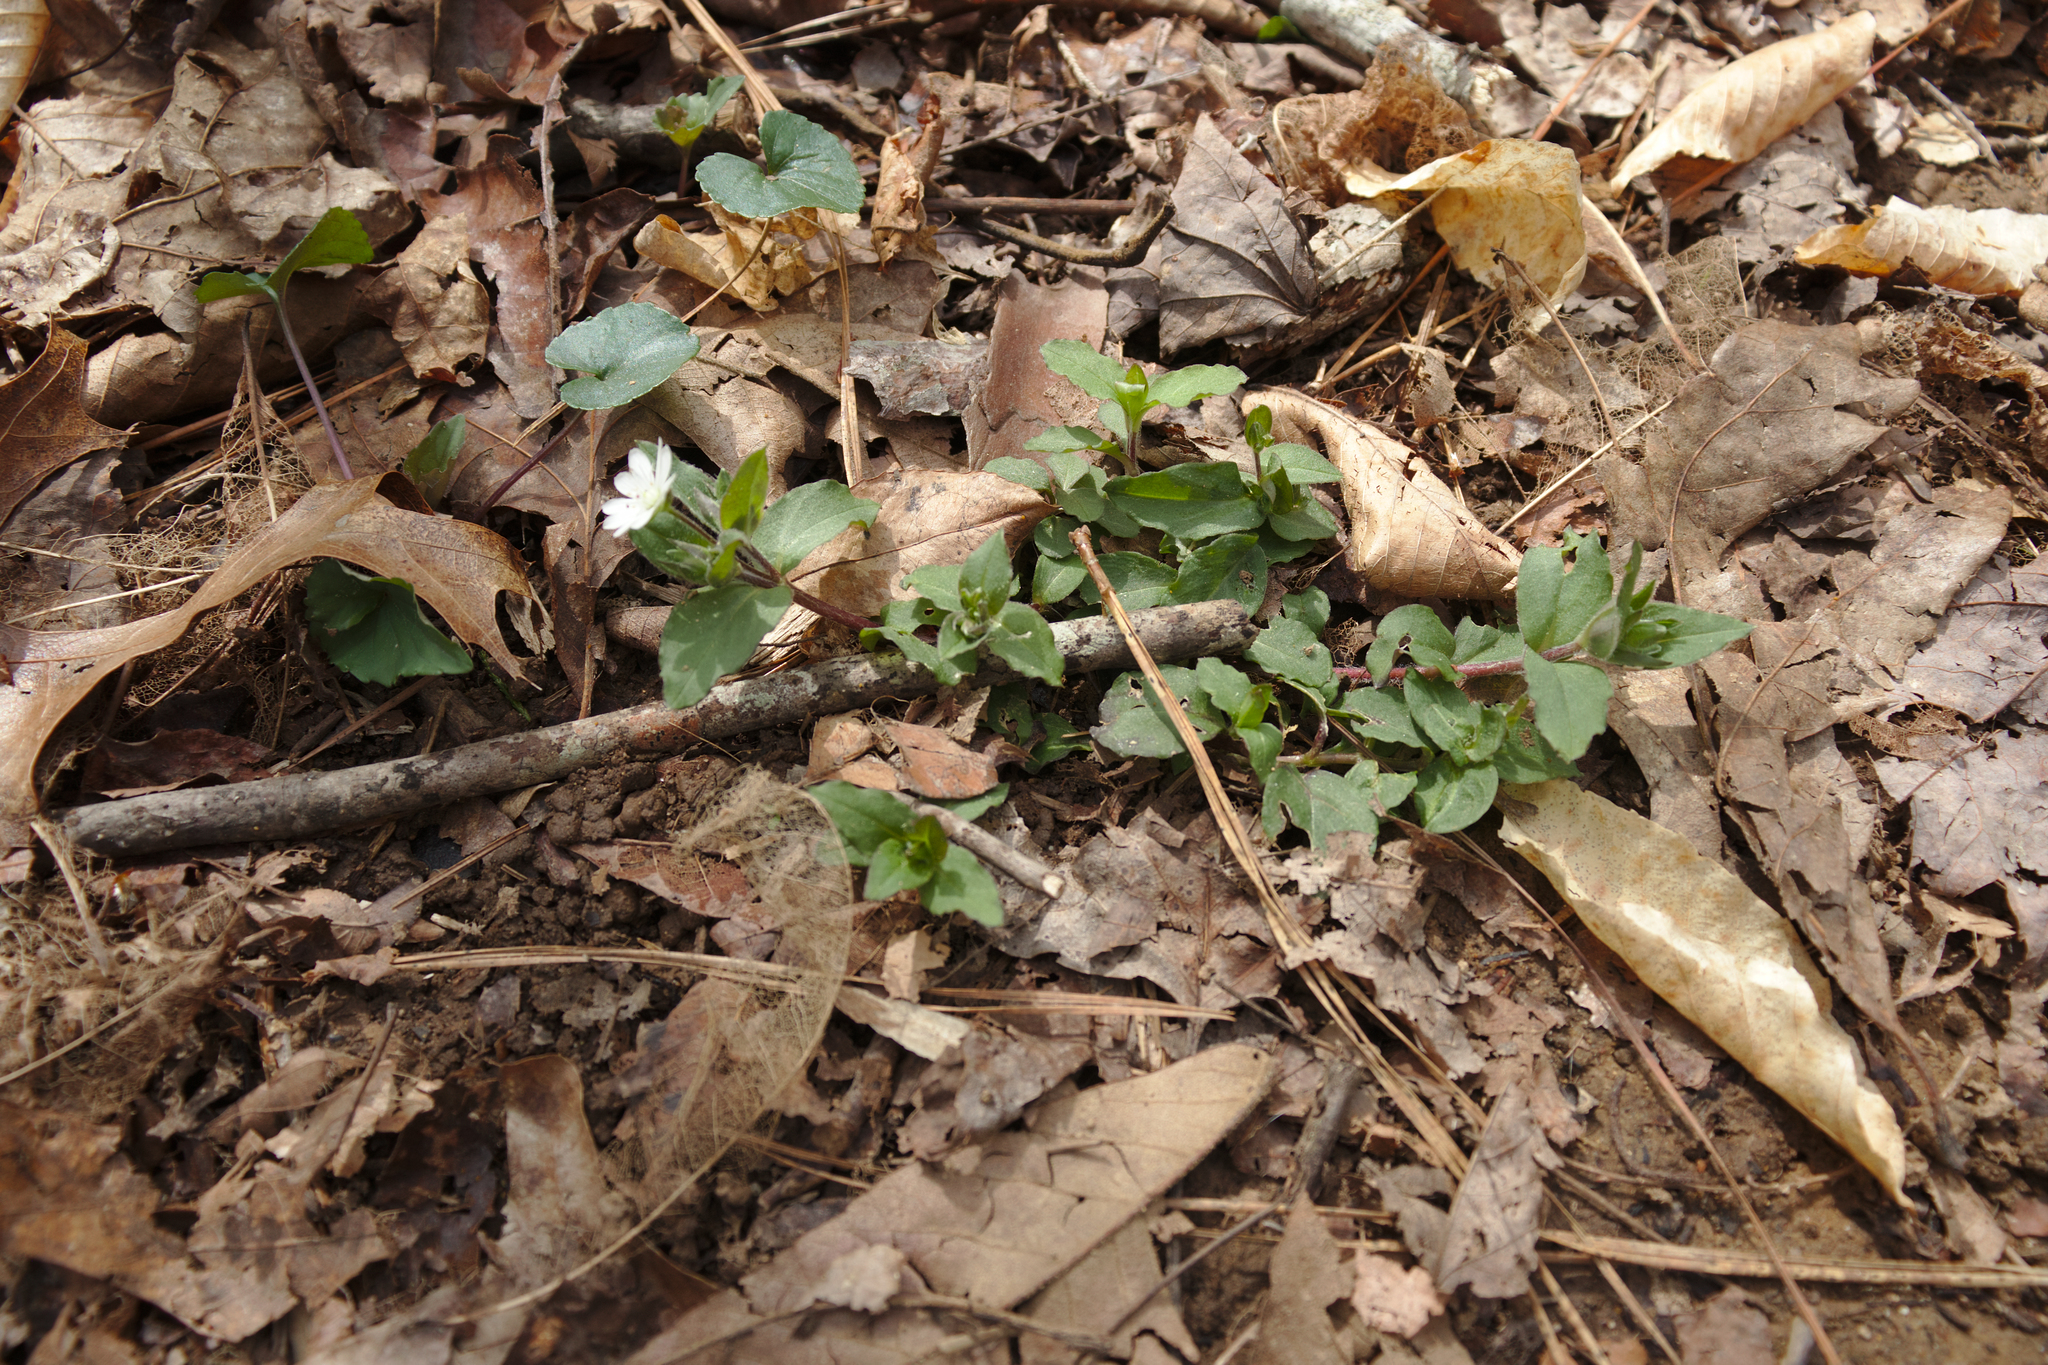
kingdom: Plantae
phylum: Tracheophyta
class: Magnoliopsida
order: Caryophyllales
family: Caryophyllaceae
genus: Stellaria
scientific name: Stellaria pubera
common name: Star chickweed
